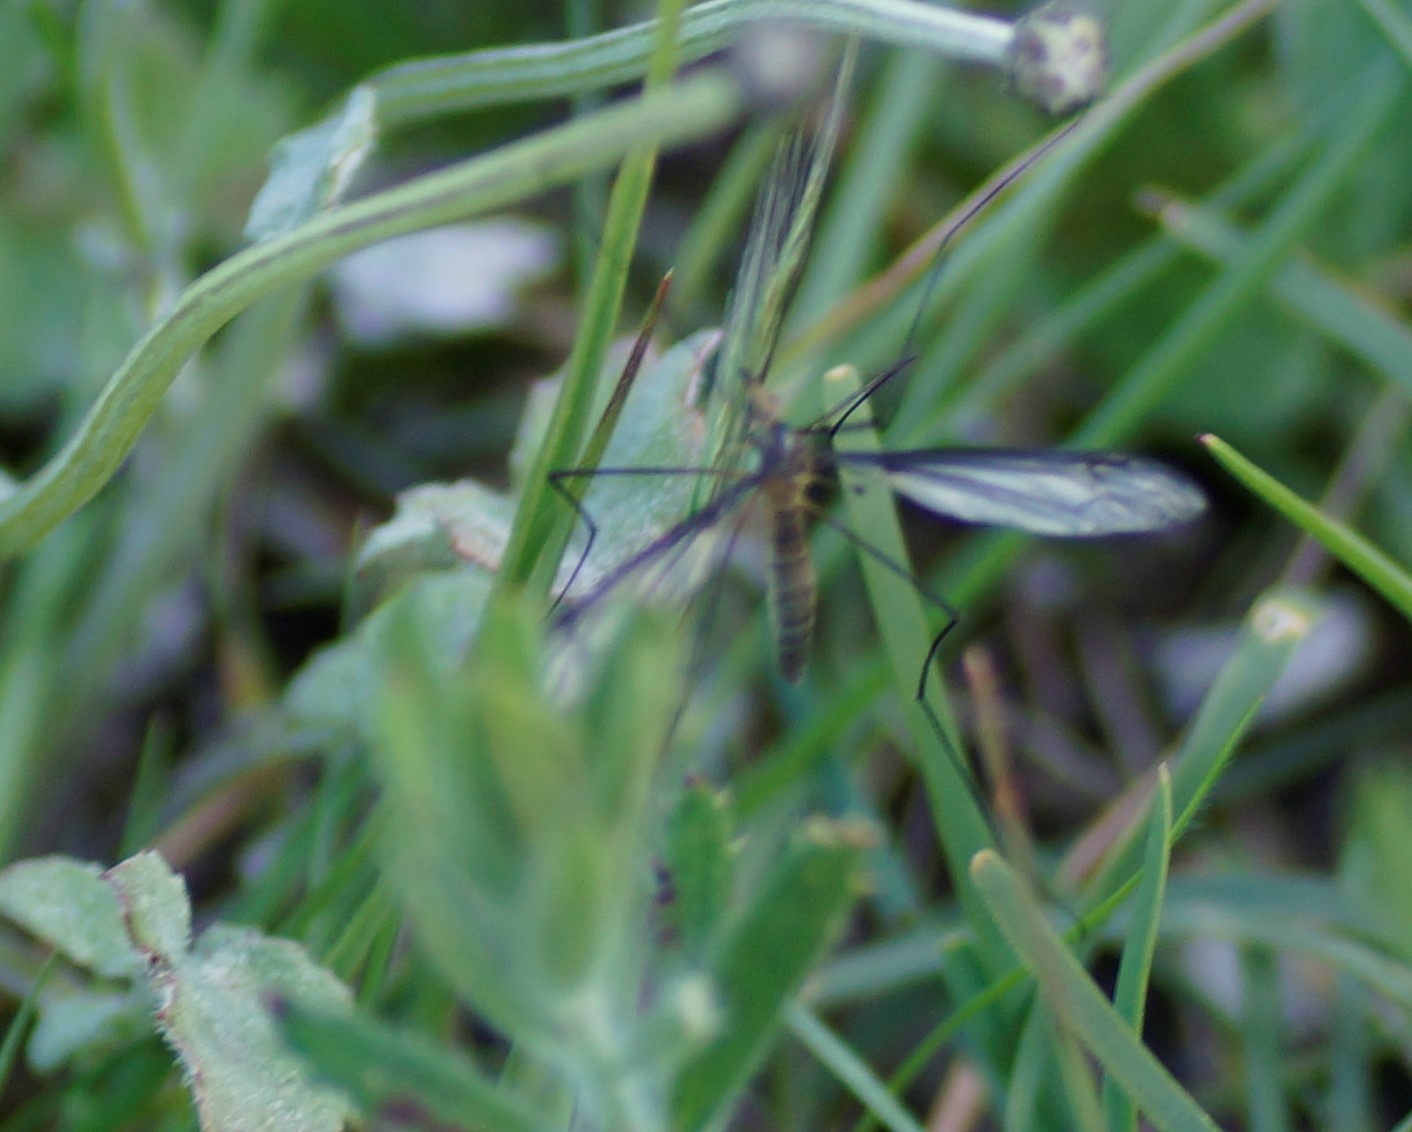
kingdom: Animalia
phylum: Arthropoda
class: Insecta
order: Diptera
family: Tipulidae
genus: Leptotarsus
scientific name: Leptotarsus humilis
